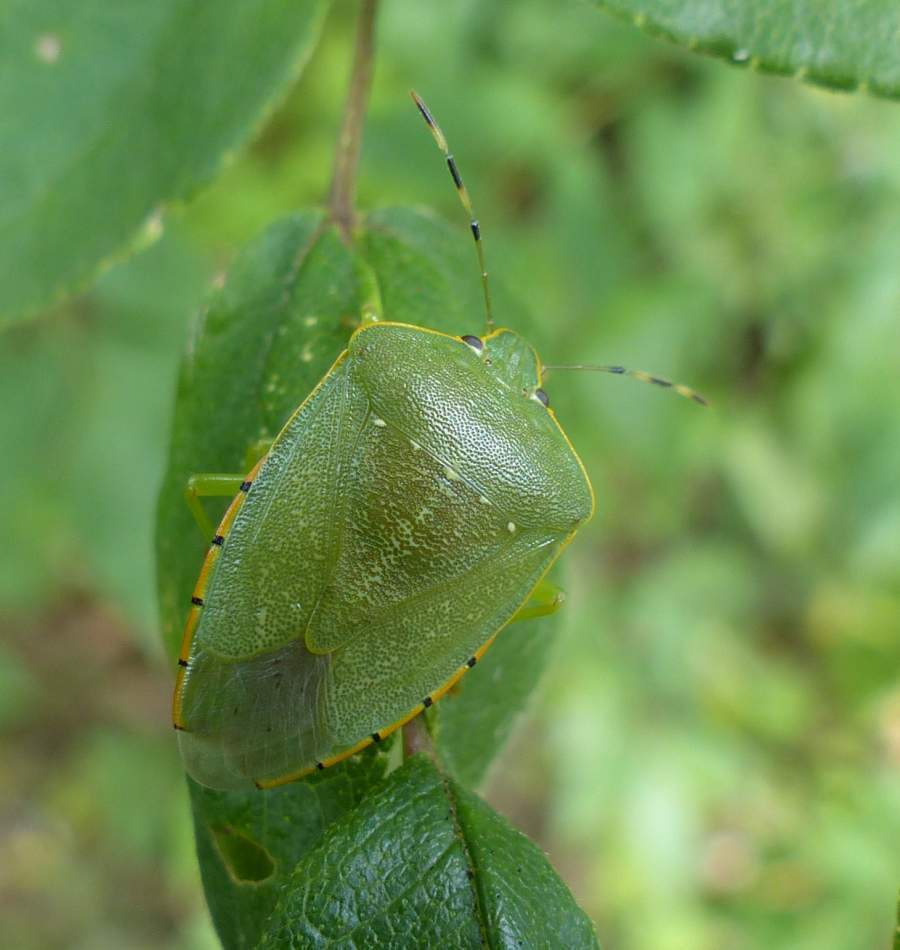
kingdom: Animalia
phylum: Arthropoda
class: Insecta
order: Hemiptera
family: Pentatomidae
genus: Chinavia
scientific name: Chinavia hilaris
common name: Green stink bug
